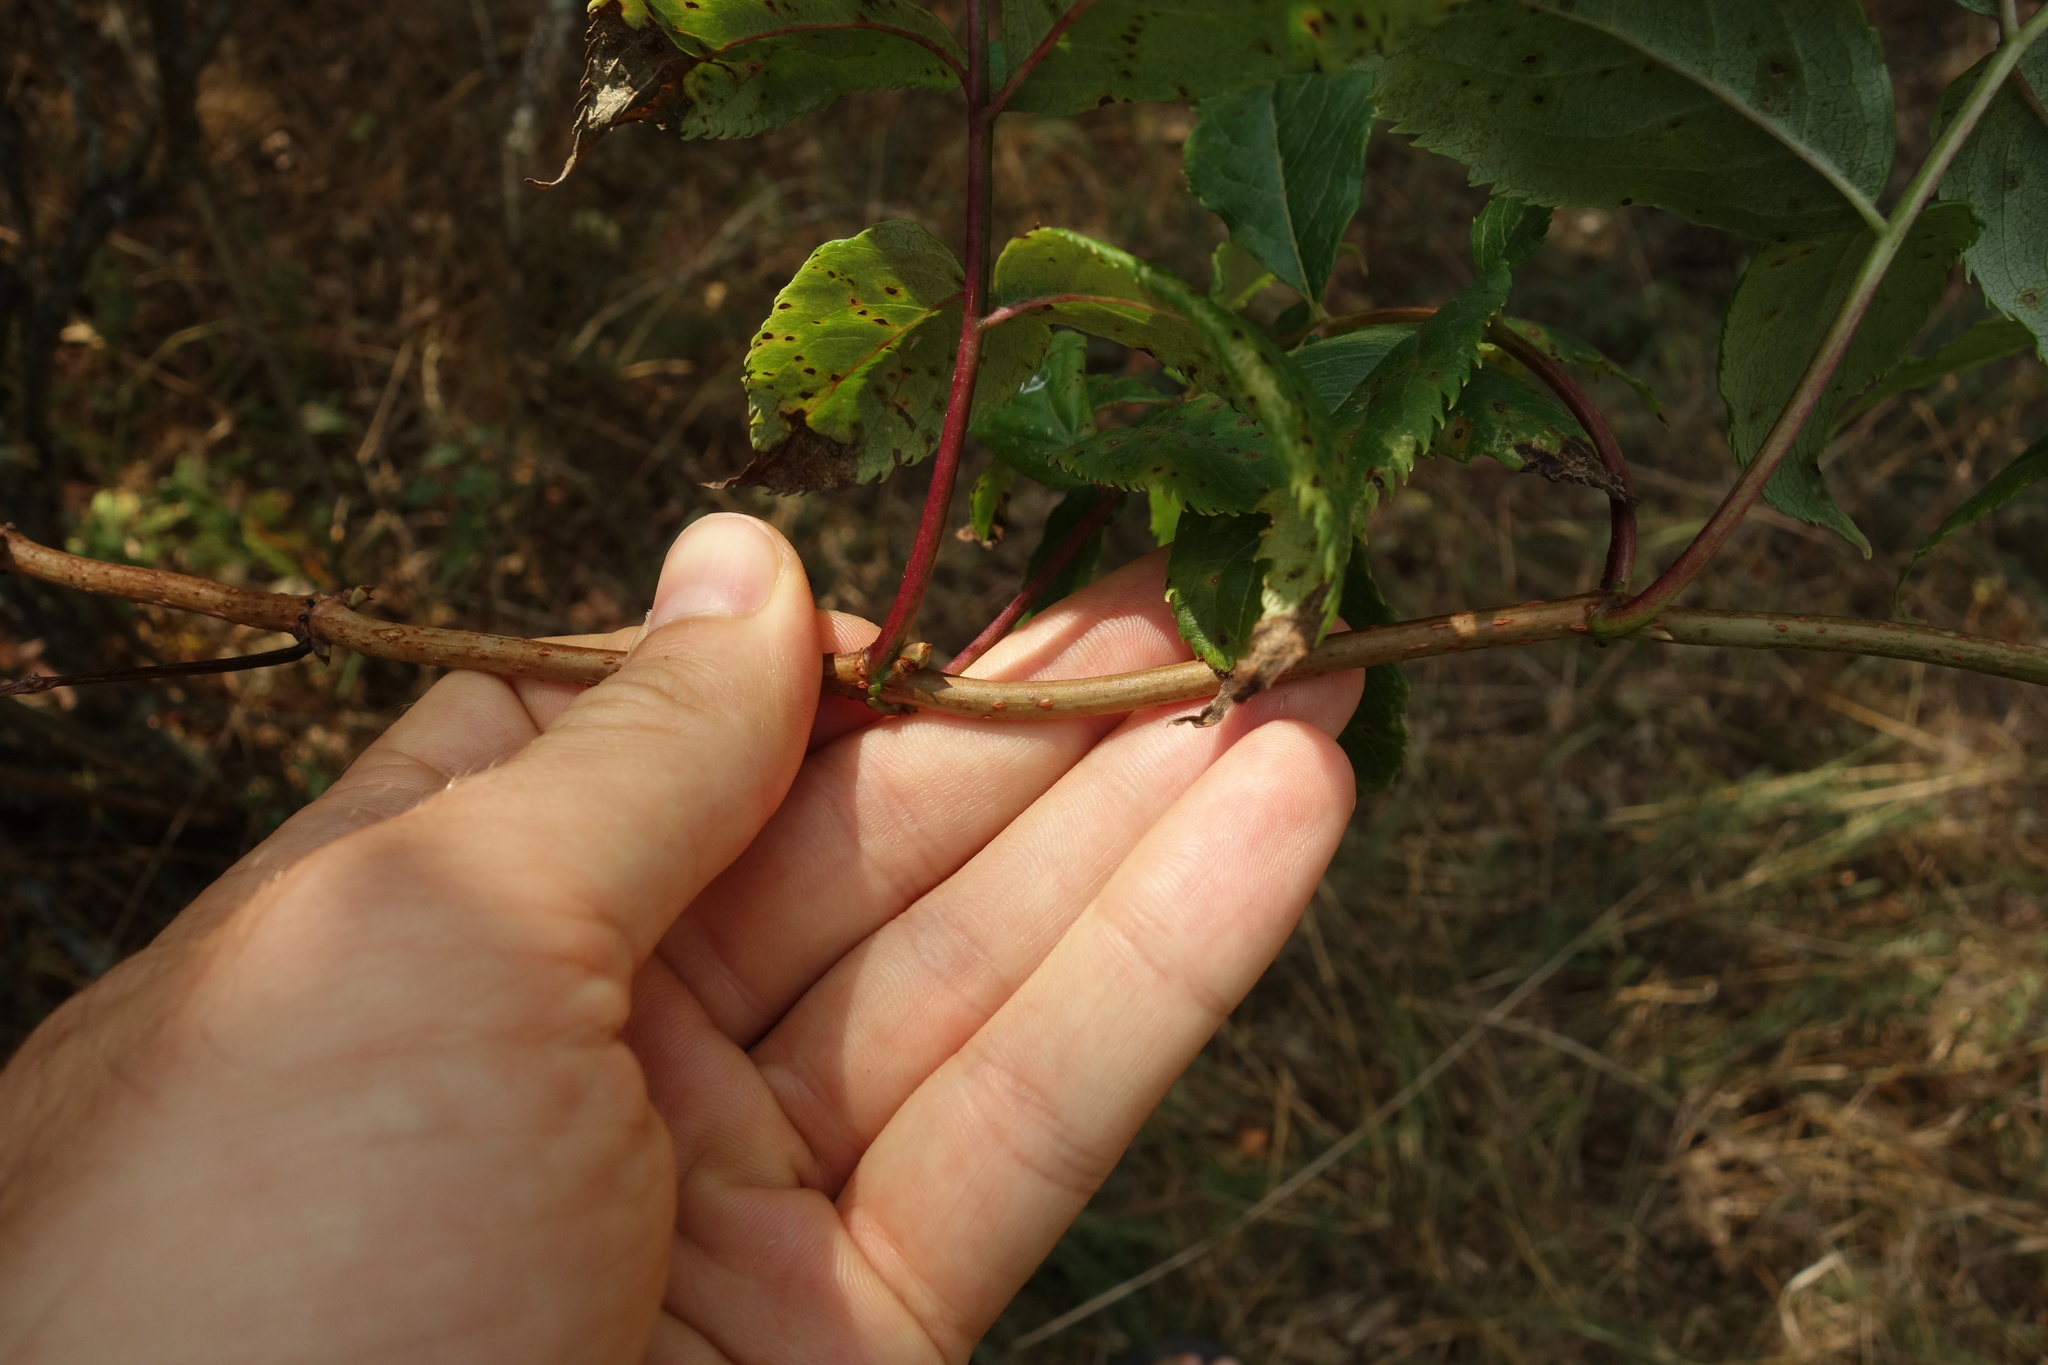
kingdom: Plantae
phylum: Tracheophyta
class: Magnoliopsida
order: Dipsacales
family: Viburnaceae
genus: Sambucus
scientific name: Sambucus racemosa
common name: Red-berried elder
